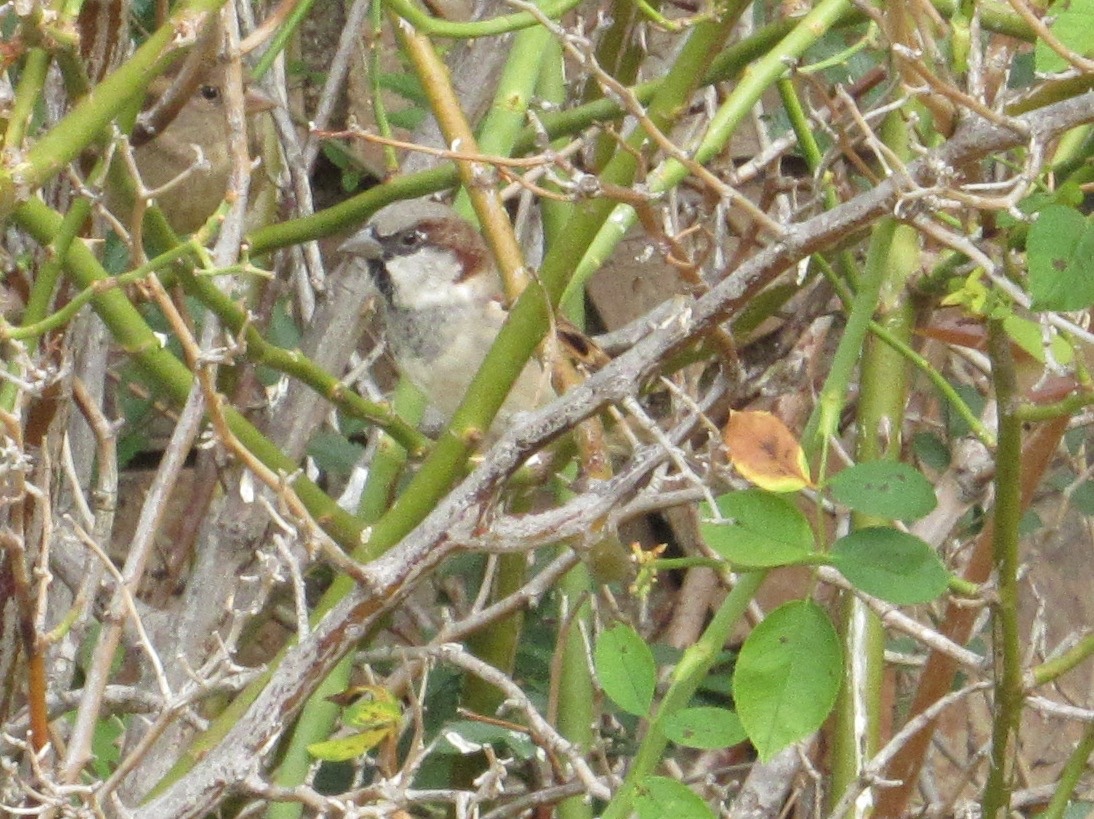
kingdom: Animalia
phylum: Chordata
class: Aves
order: Passeriformes
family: Passeridae
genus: Passer
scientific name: Passer domesticus
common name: House sparrow
